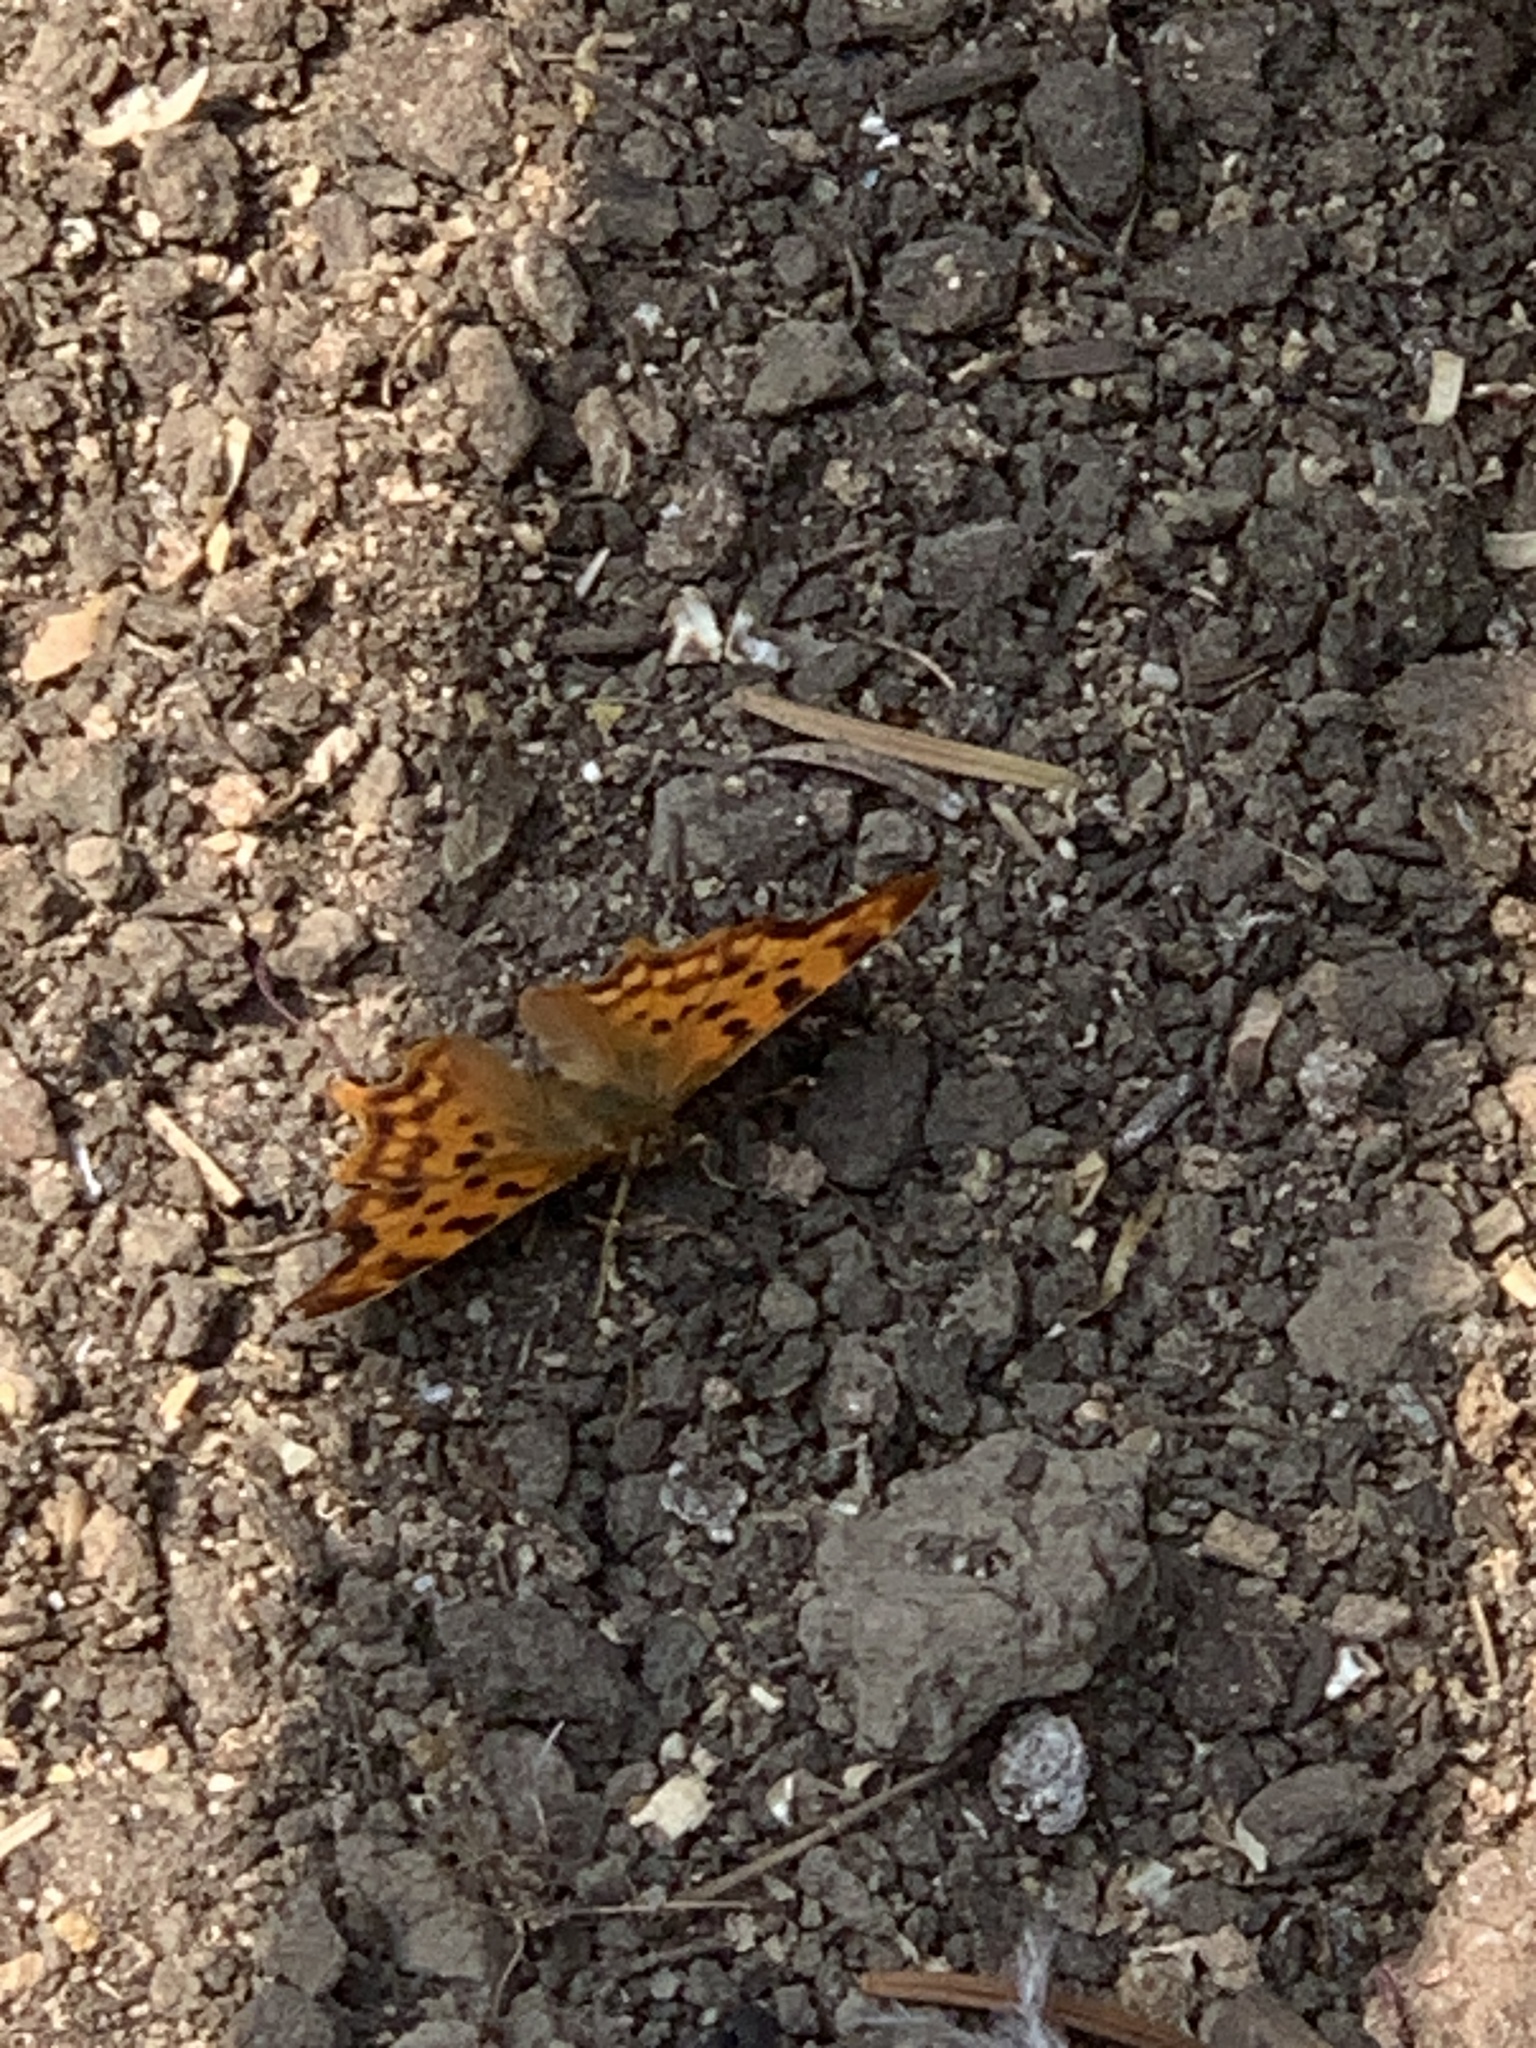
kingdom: Animalia
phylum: Arthropoda
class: Insecta
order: Lepidoptera
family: Nymphalidae
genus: Polygonia
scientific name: Polygonia c-album
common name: Comma
